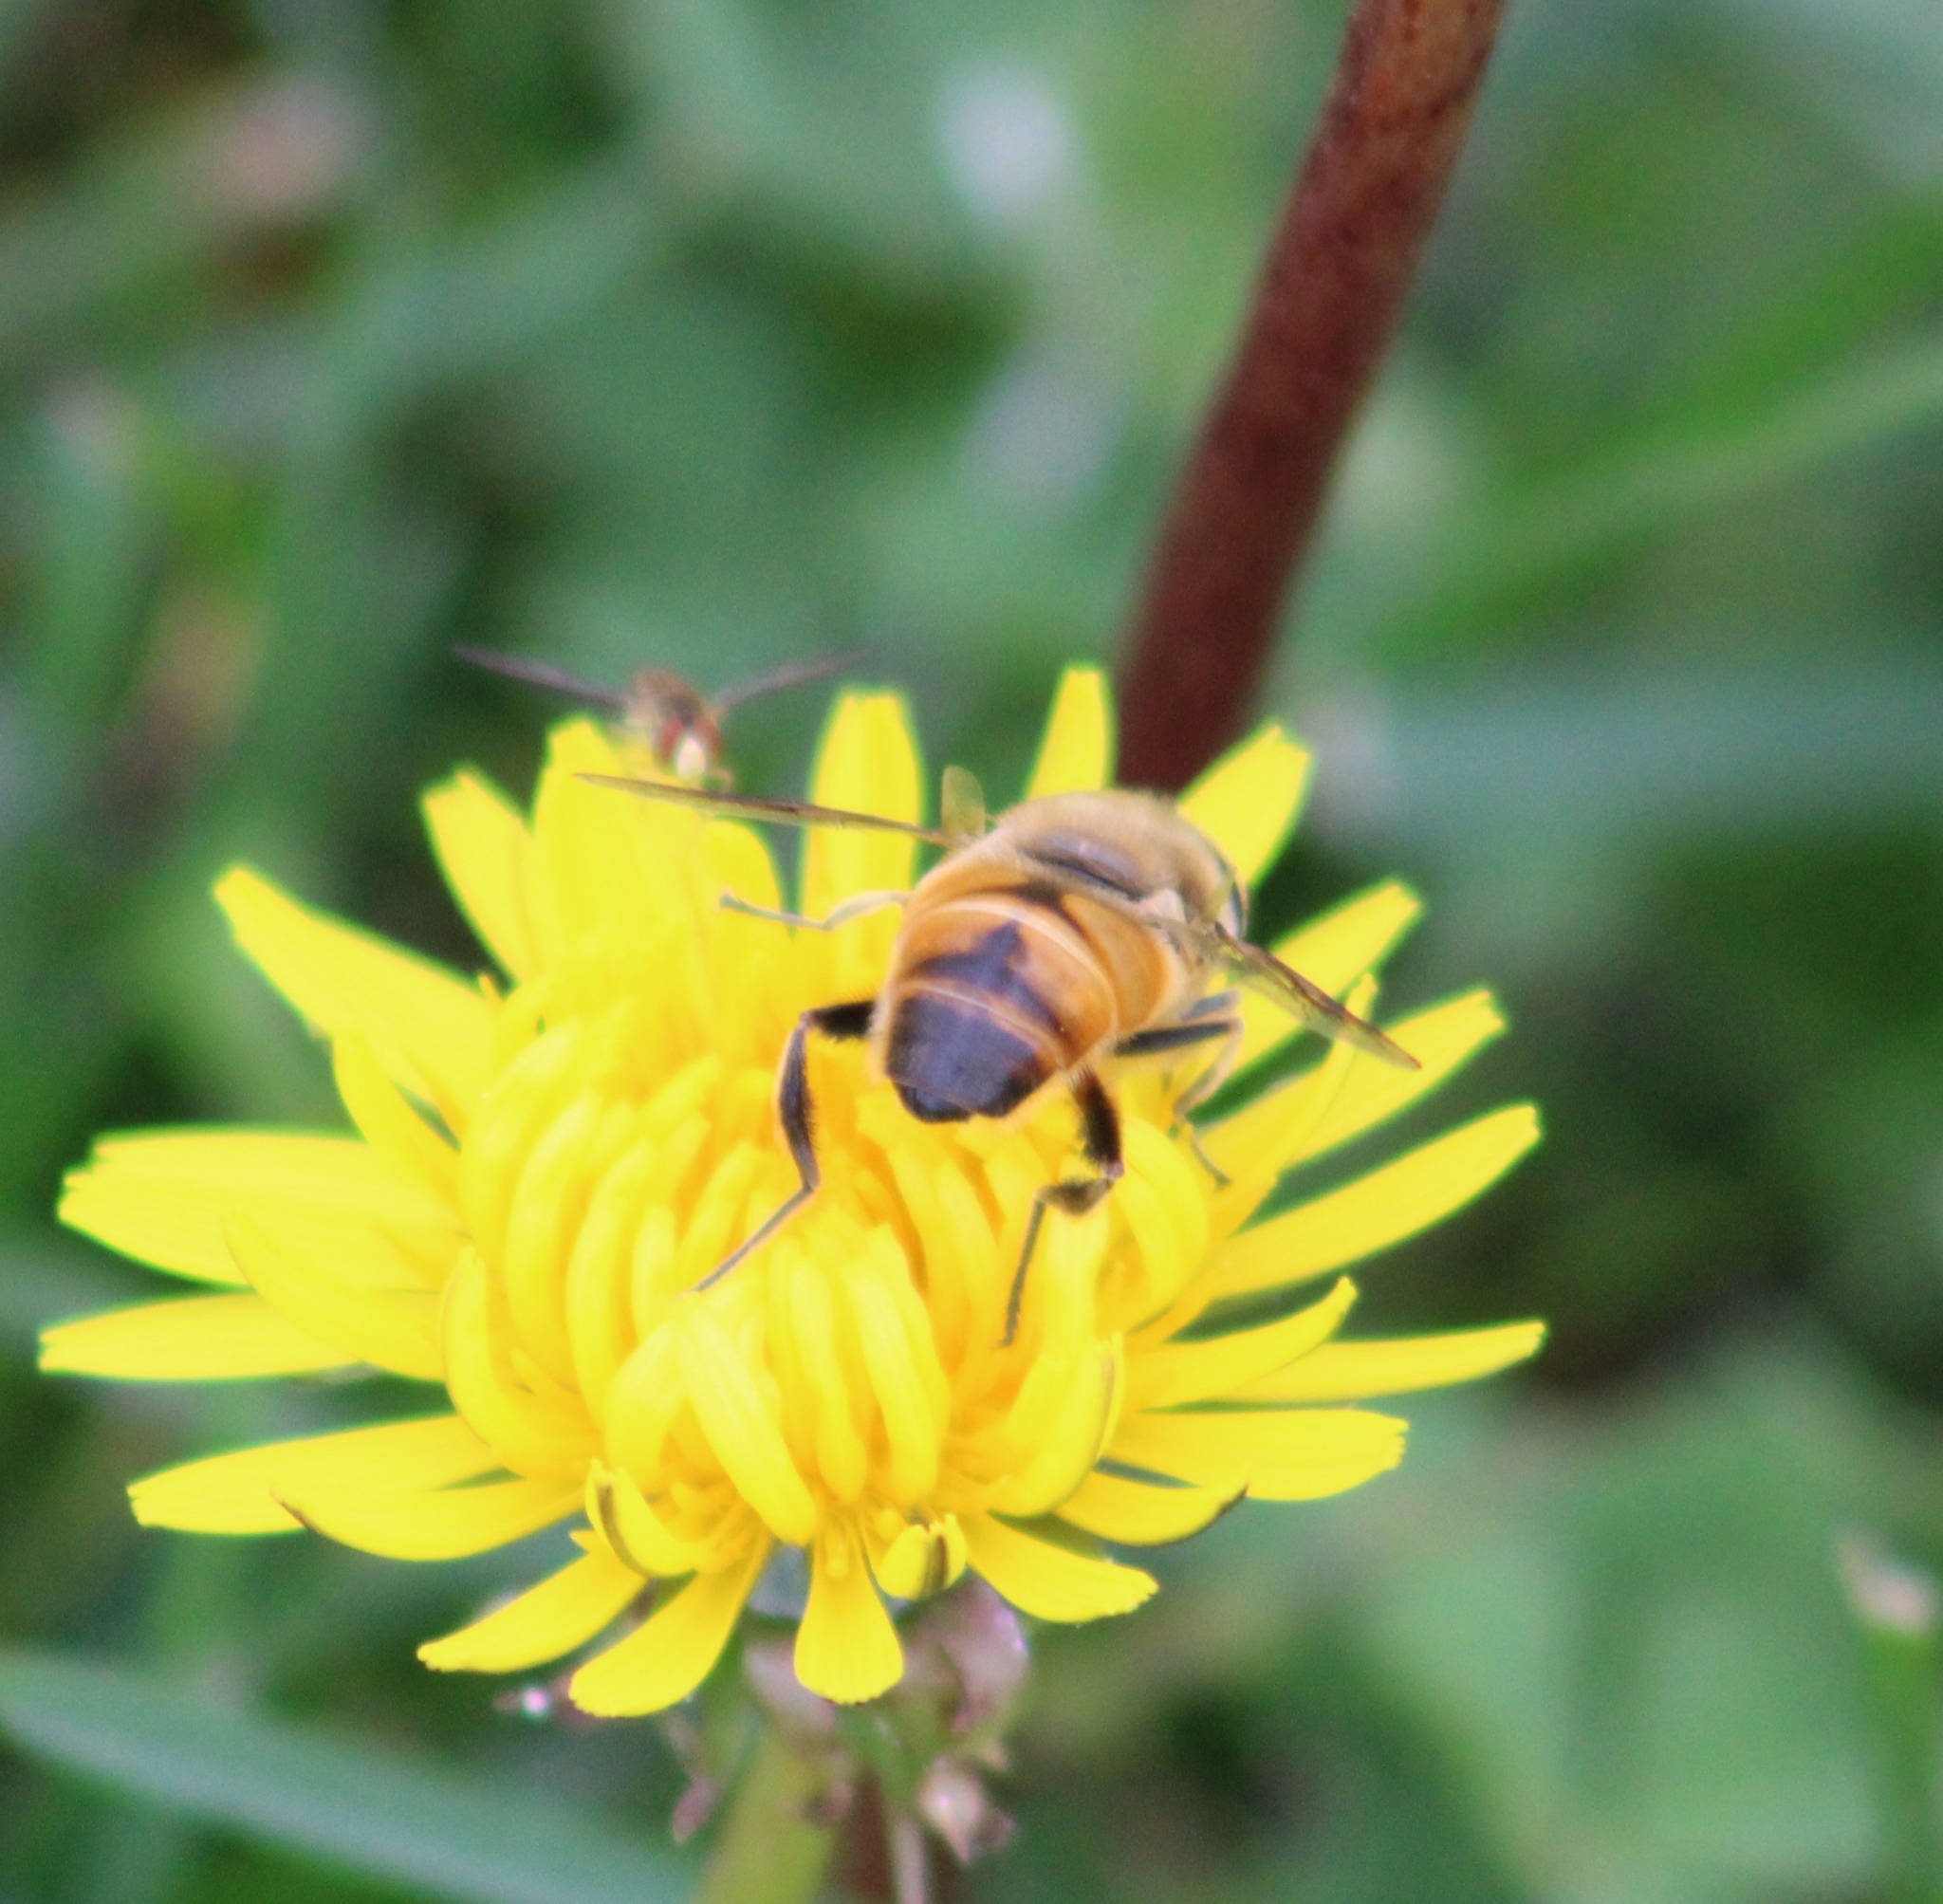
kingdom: Animalia
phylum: Arthropoda
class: Insecta
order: Diptera
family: Syrphidae
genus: Eristalis
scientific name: Eristalis tenax
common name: Drone fly
